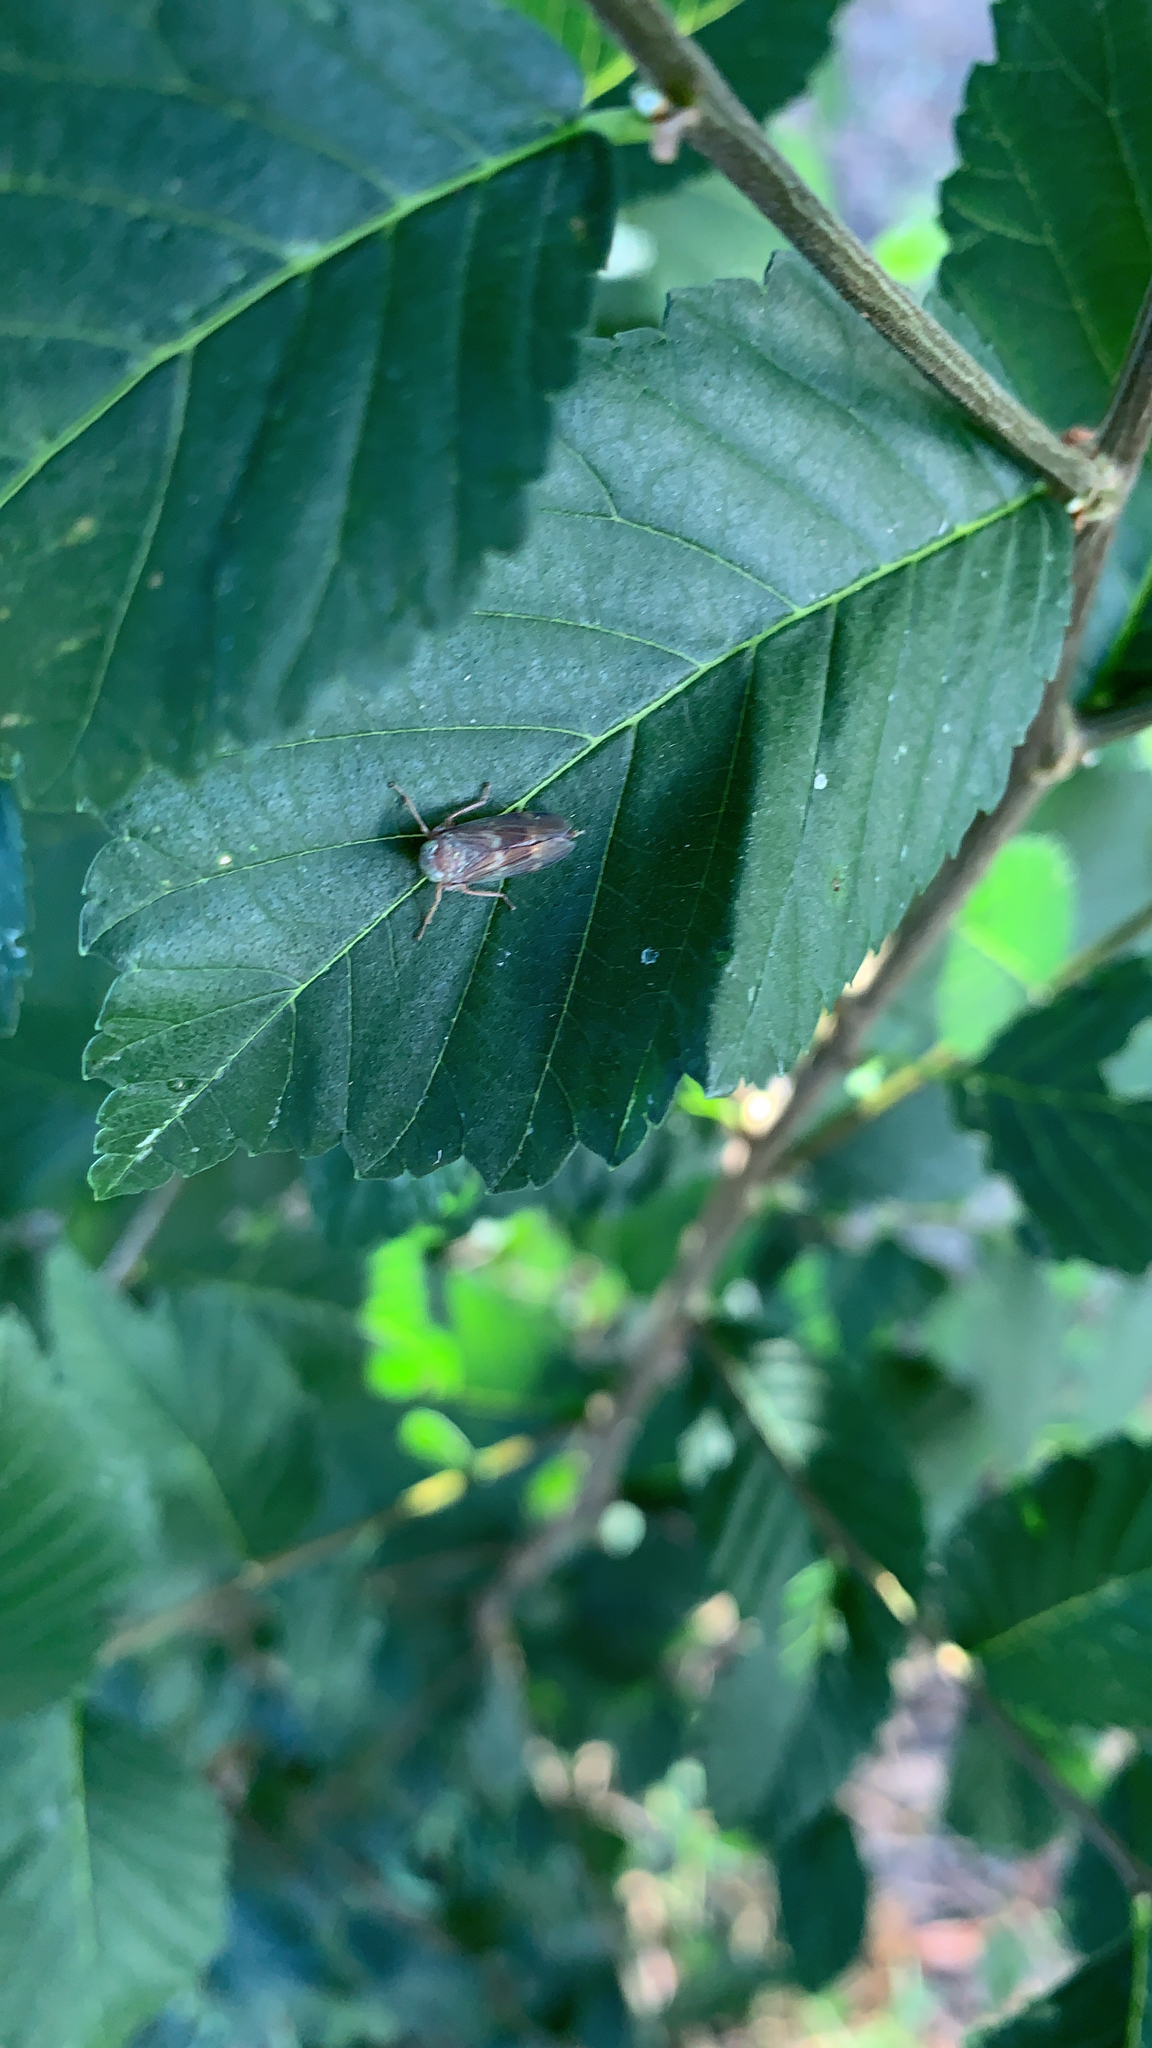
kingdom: Animalia
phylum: Arthropoda
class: Insecta
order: Hemiptera
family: Cicadellidae
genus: Jikradia
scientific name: Jikradia olitoria
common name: Coppery leafhopper
